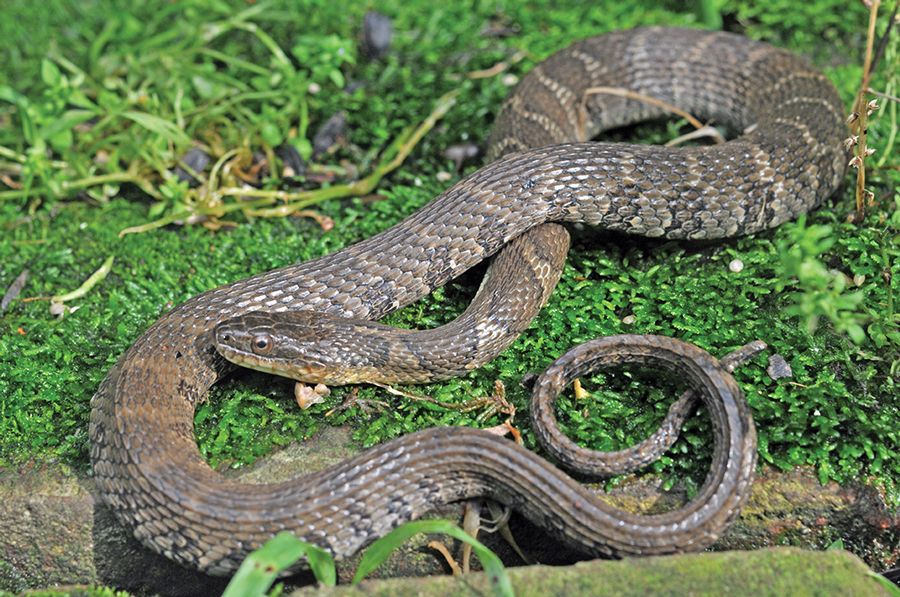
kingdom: Animalia
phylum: Chordata
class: Squamata
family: Colubridae
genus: Nerodia
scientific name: Nerodia sipedon
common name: Northern water snake
